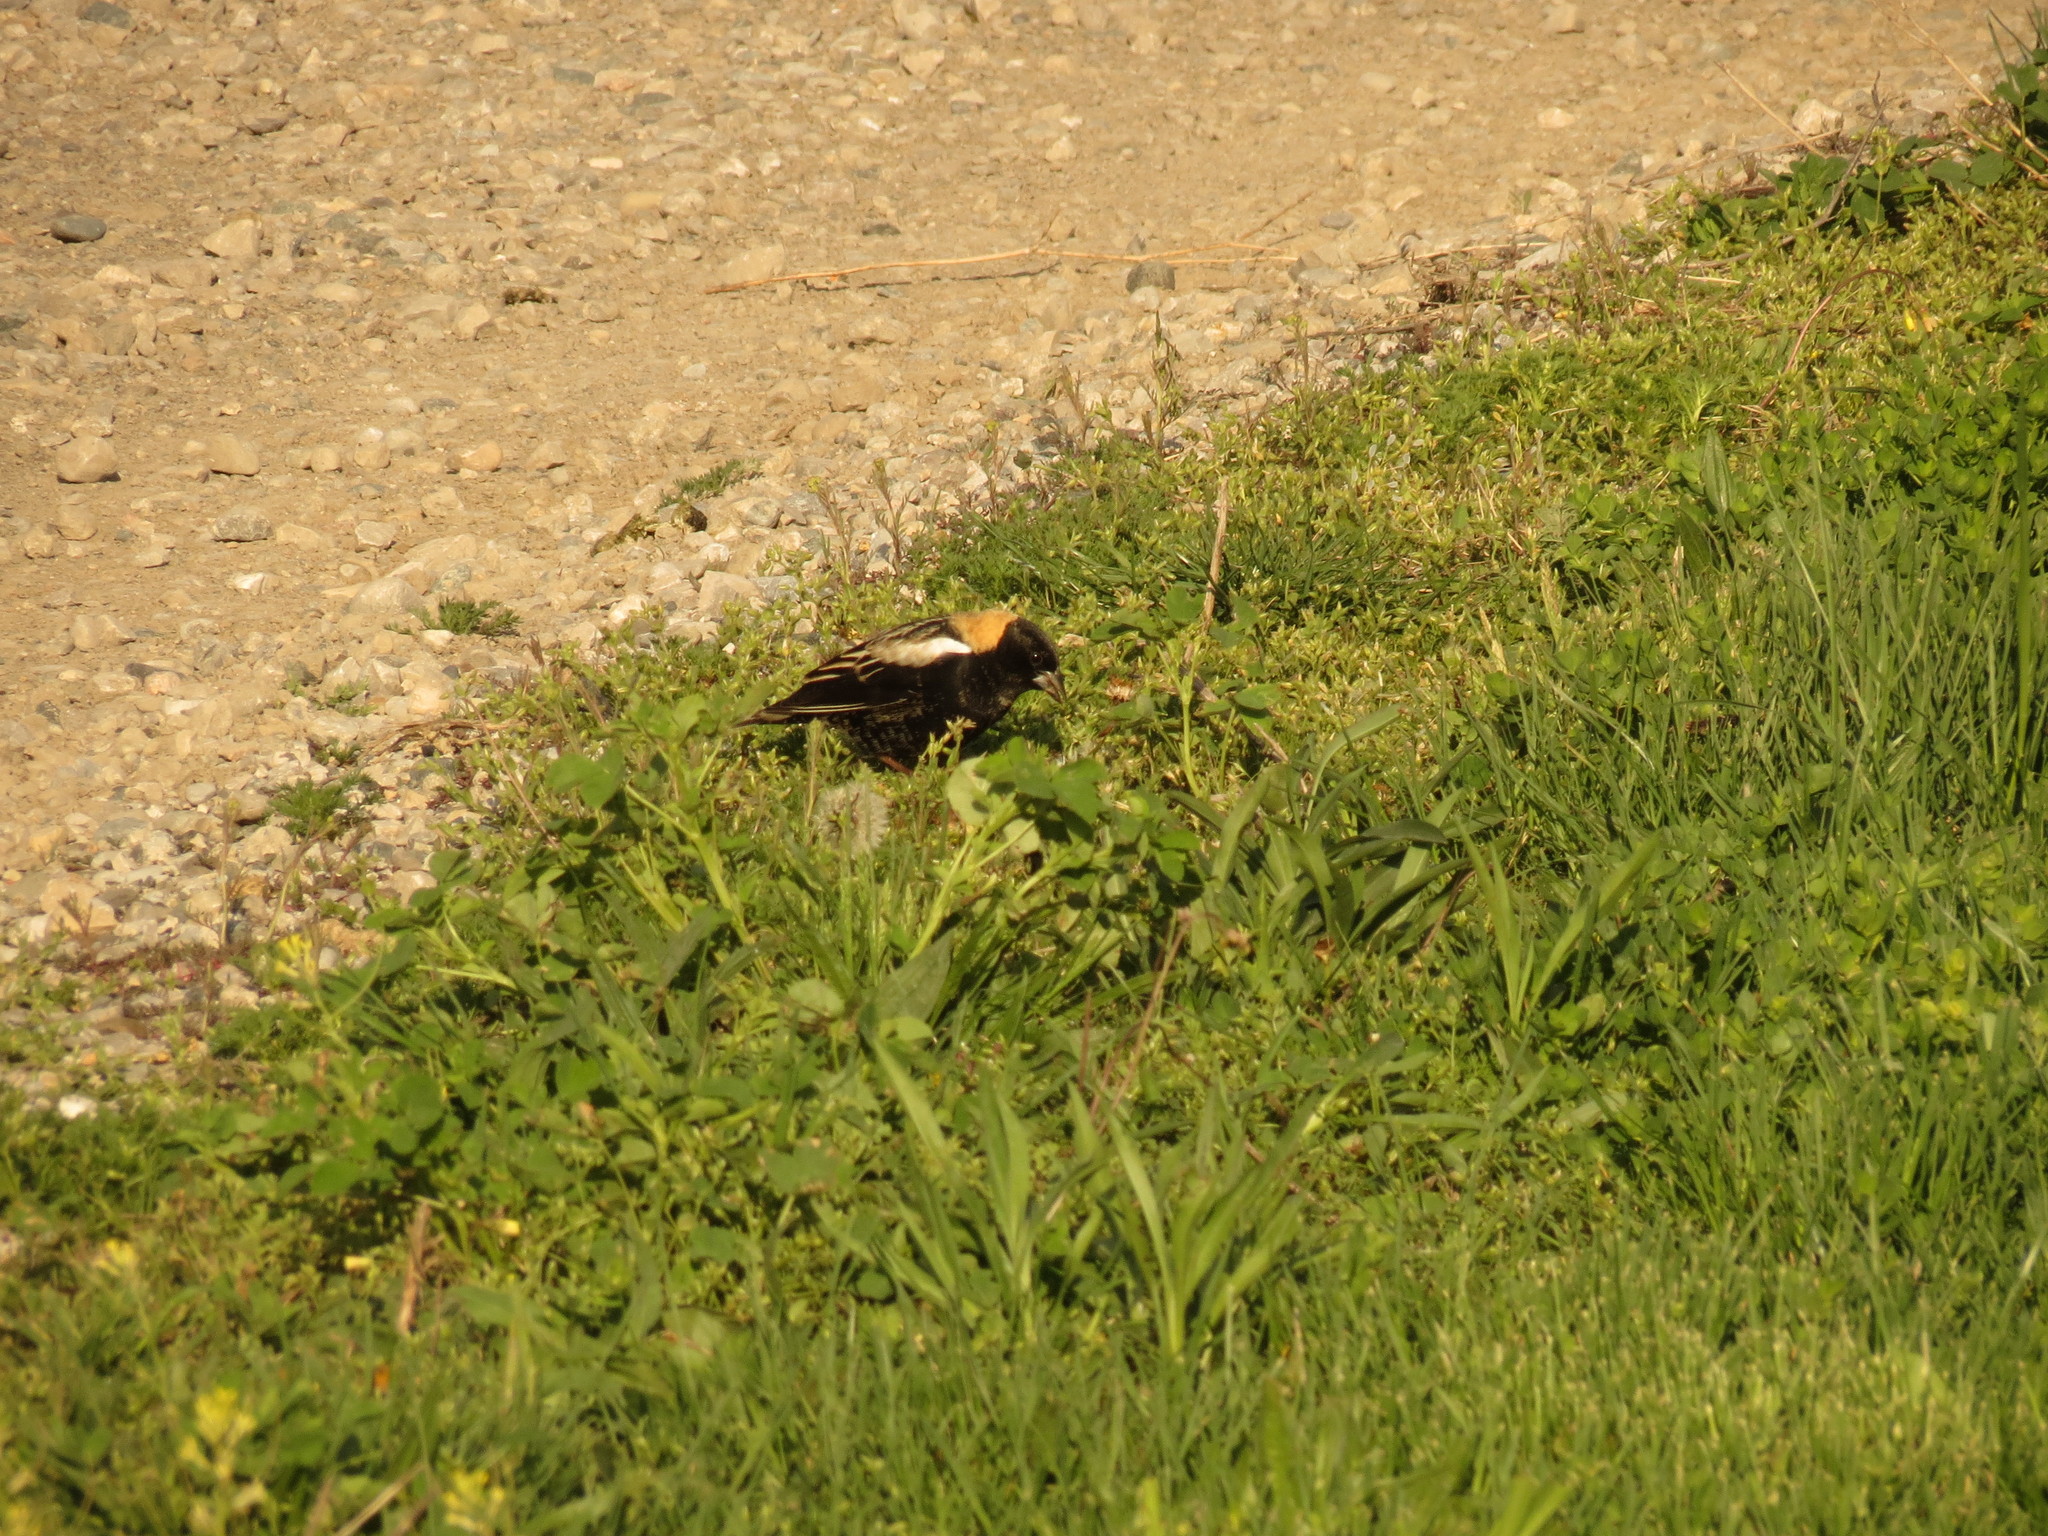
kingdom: Animalia
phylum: Chordata
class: Aves
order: Passeriformes
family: Icteridae
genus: Dolichonyx
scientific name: Dolichonyx oryzivorus
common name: Bobolink
